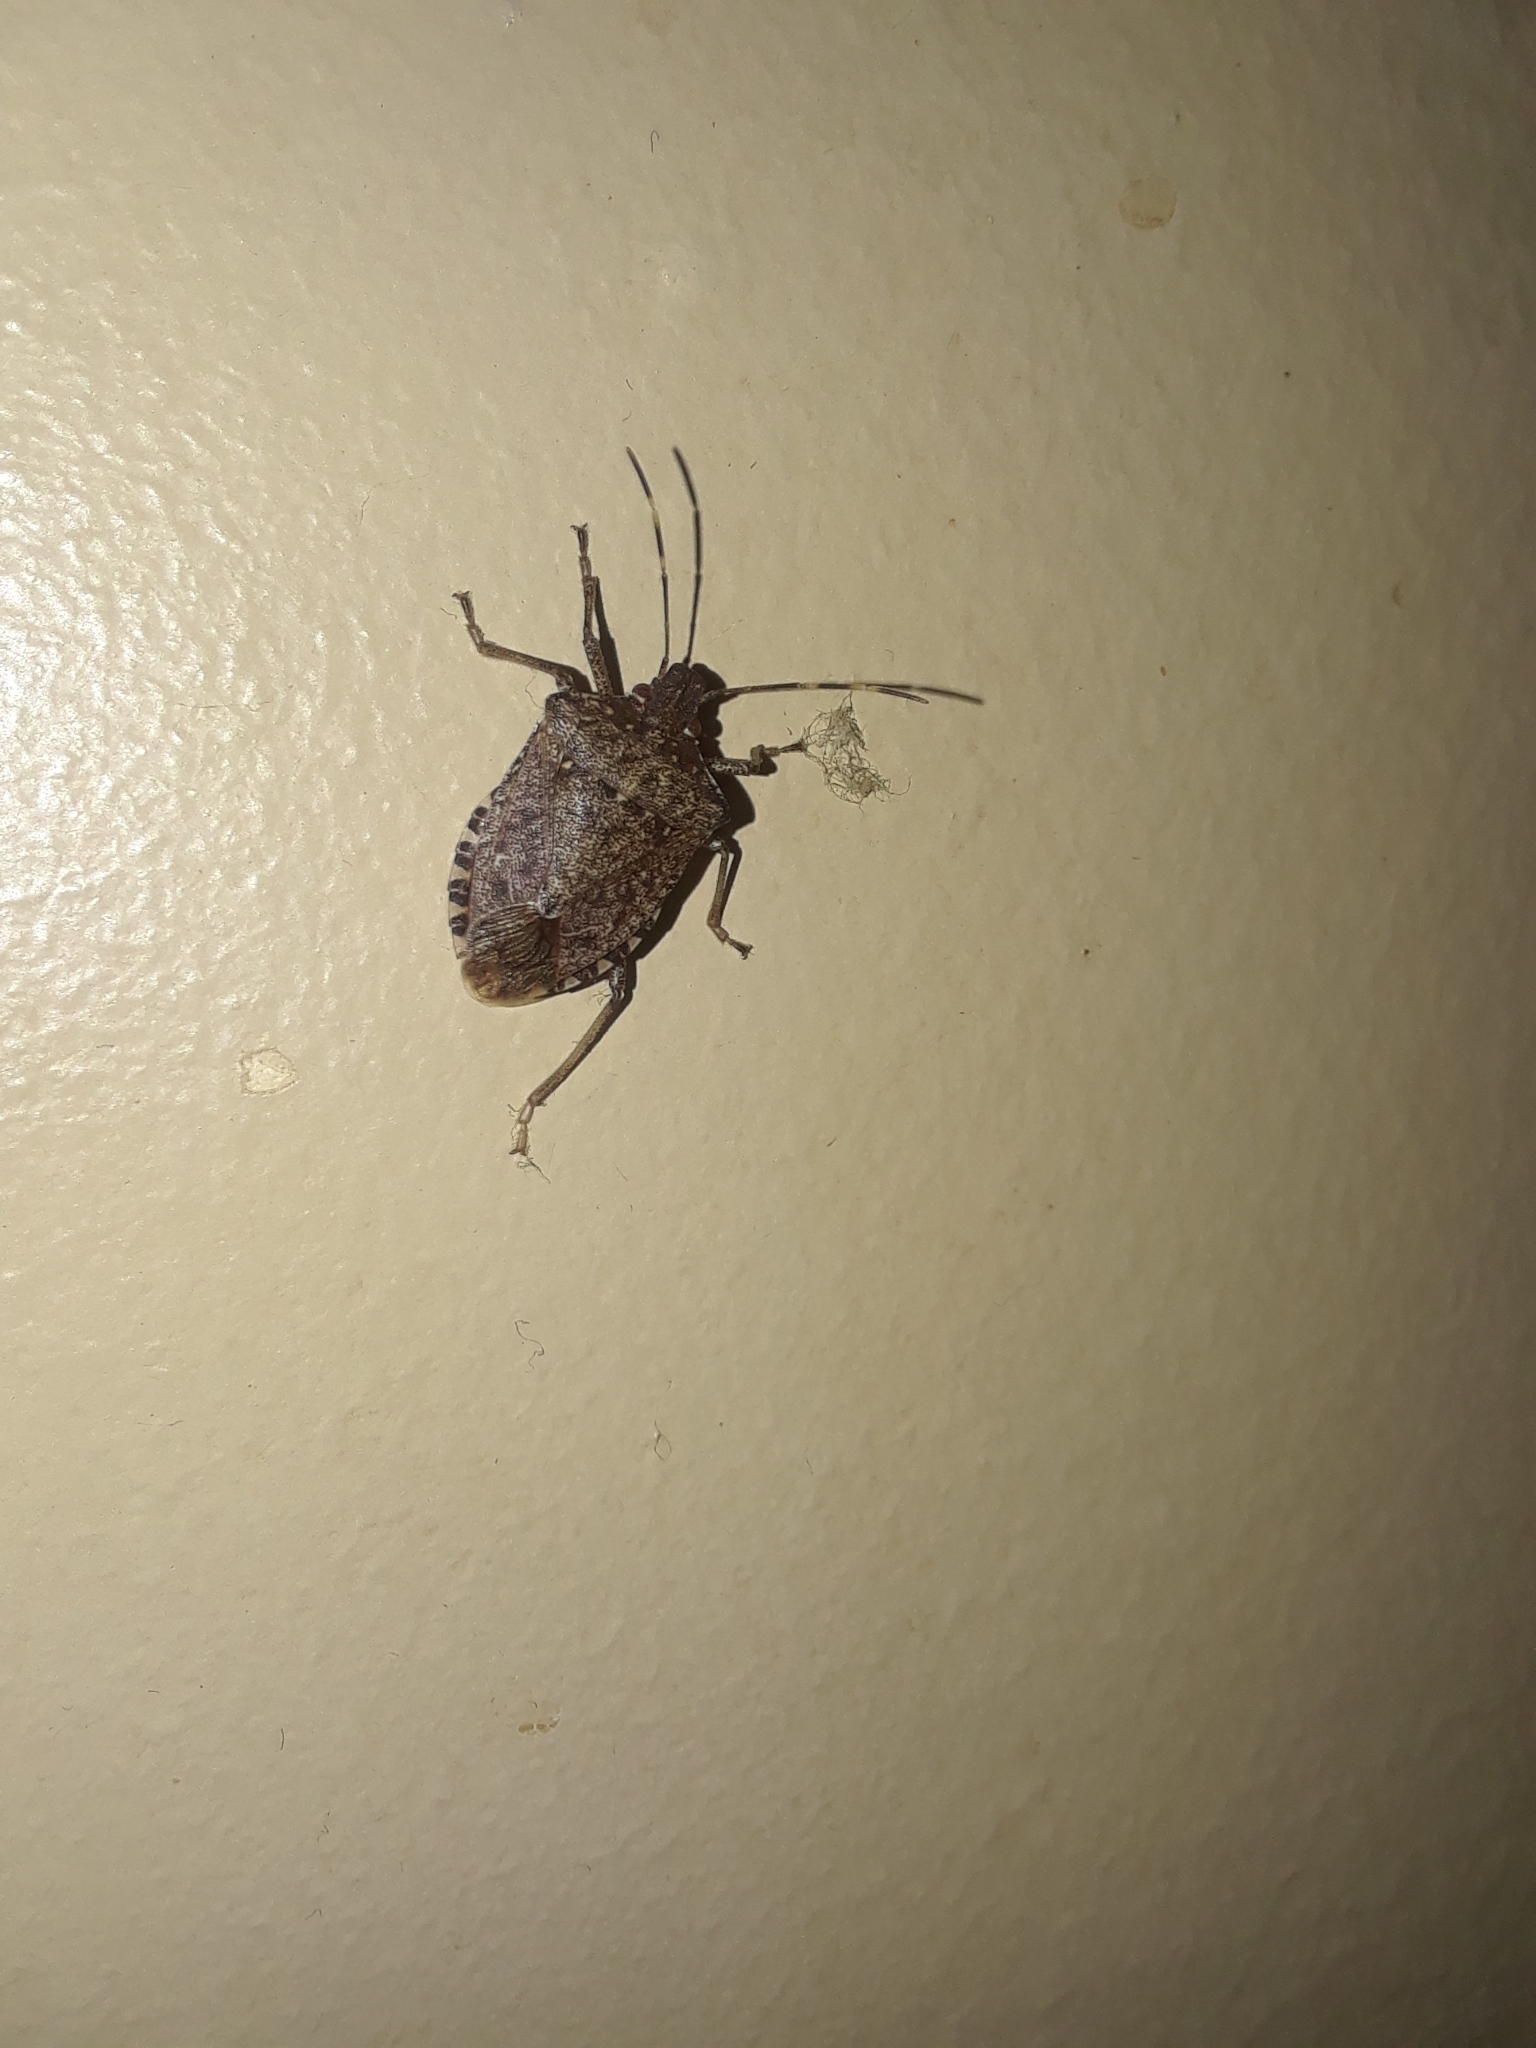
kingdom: Animalia
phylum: Arthropoda
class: Insecta
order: Hemiptera
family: Pentatomidae
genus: Halyomorpha
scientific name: Halyomorpha halys
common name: Brown marmorated stink bug
